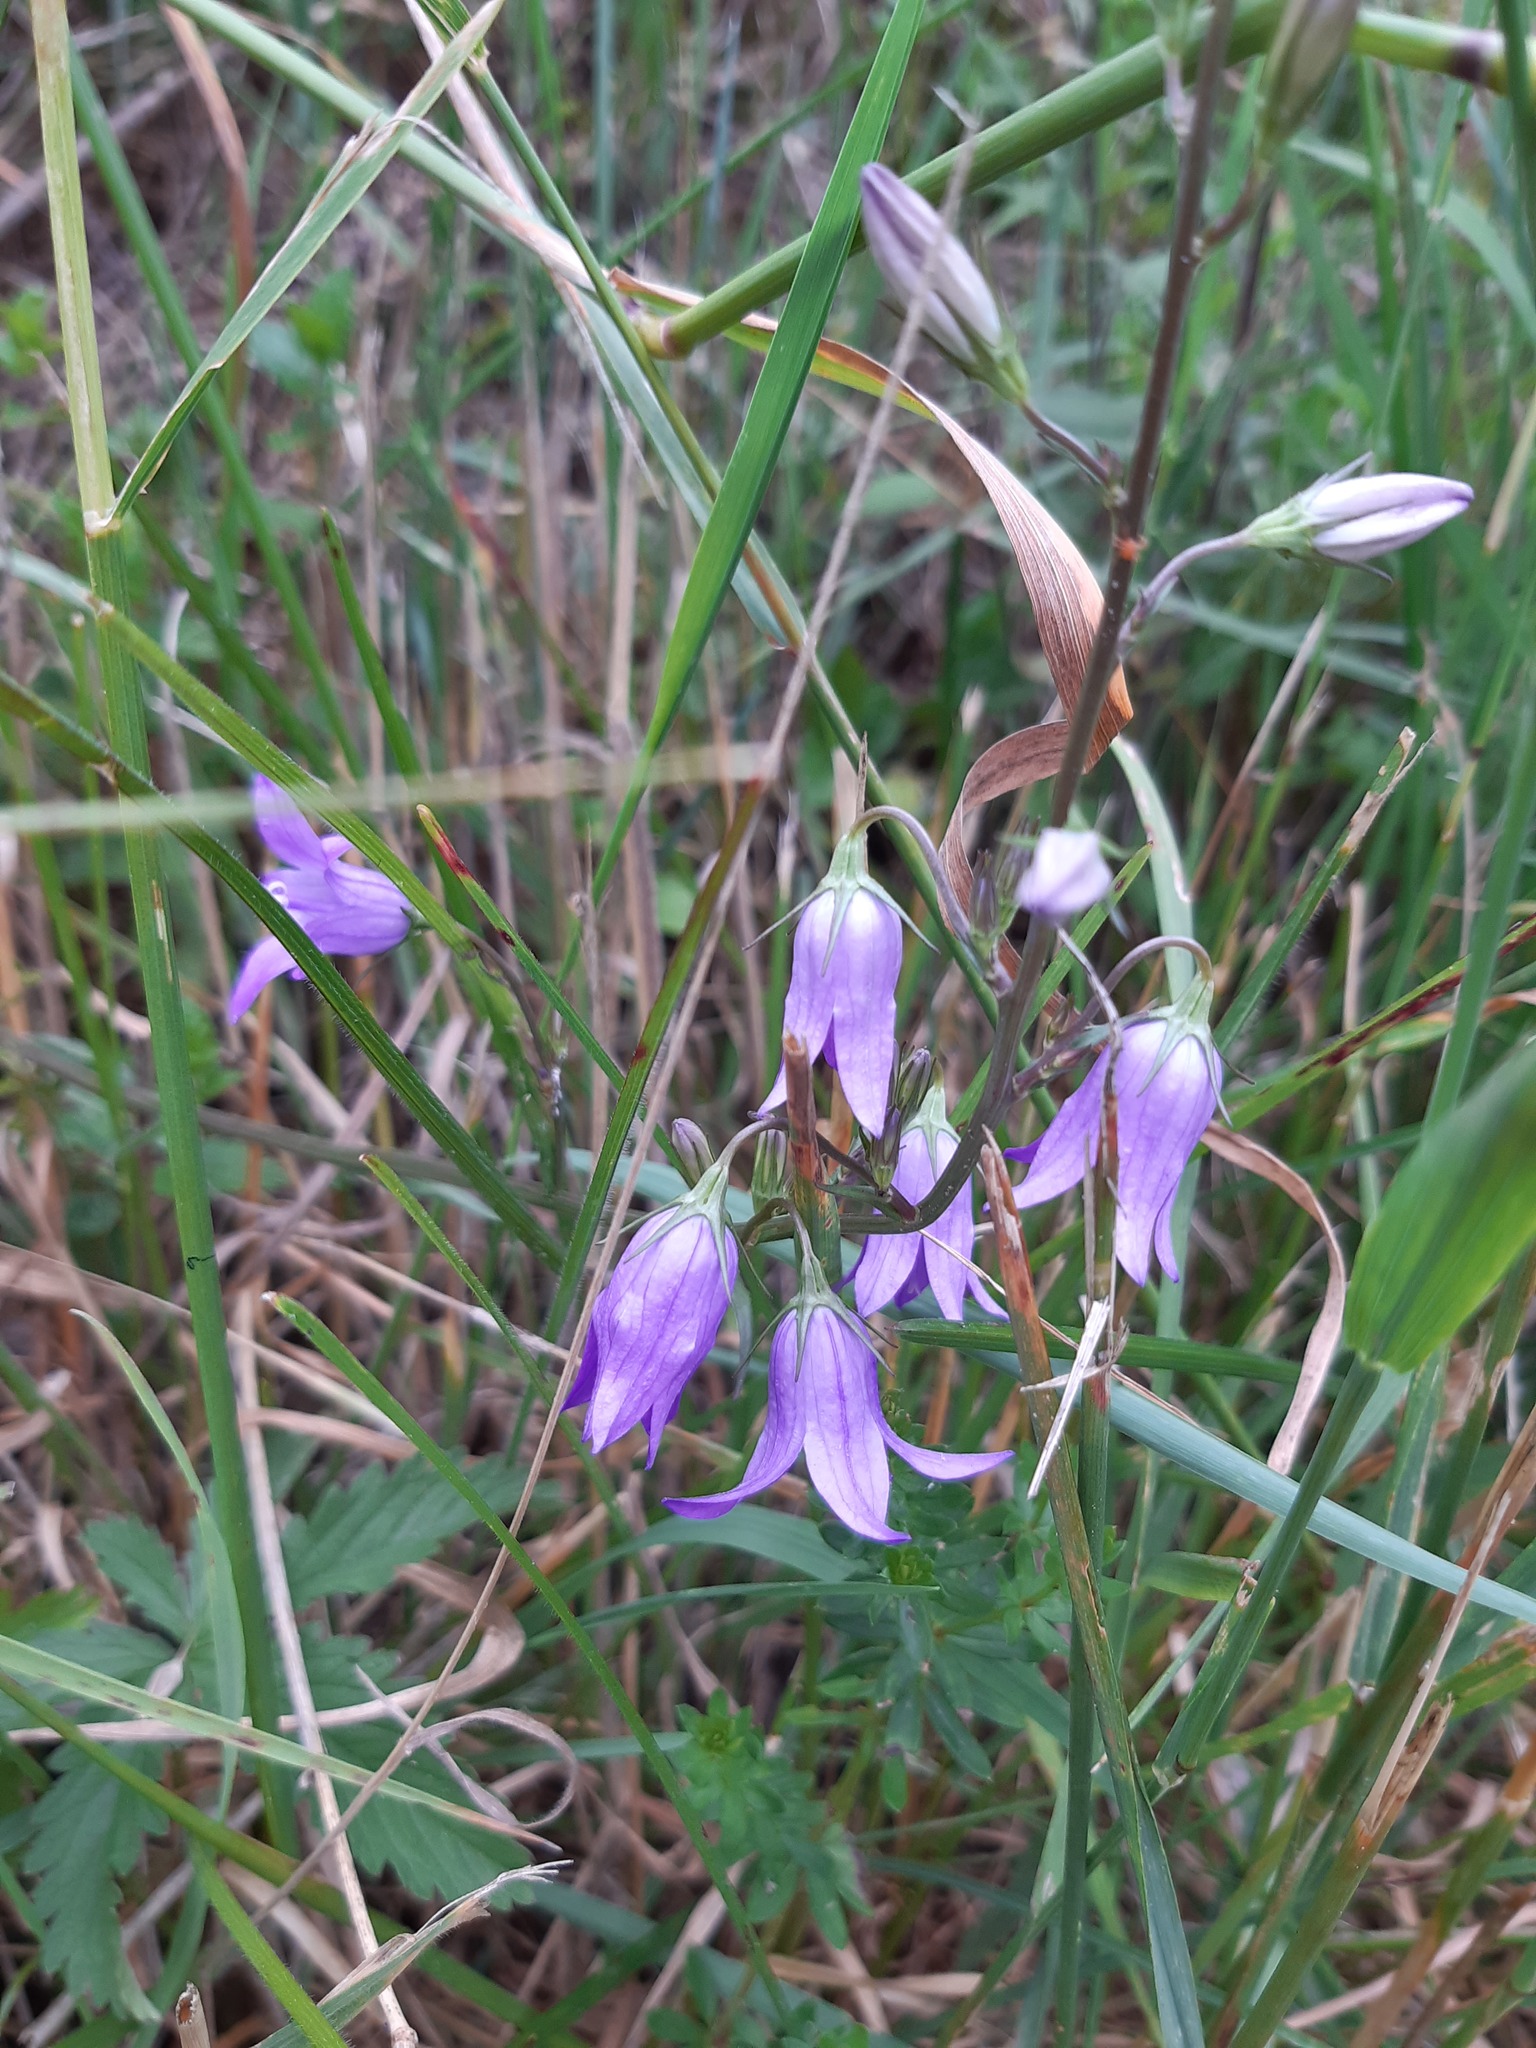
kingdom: Plantae
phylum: Tracheophyta
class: Magnoliopsida
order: Asterales
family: Campanulaceae
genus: Campanula
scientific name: Campanula rapunculus
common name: Rampion bellflower
